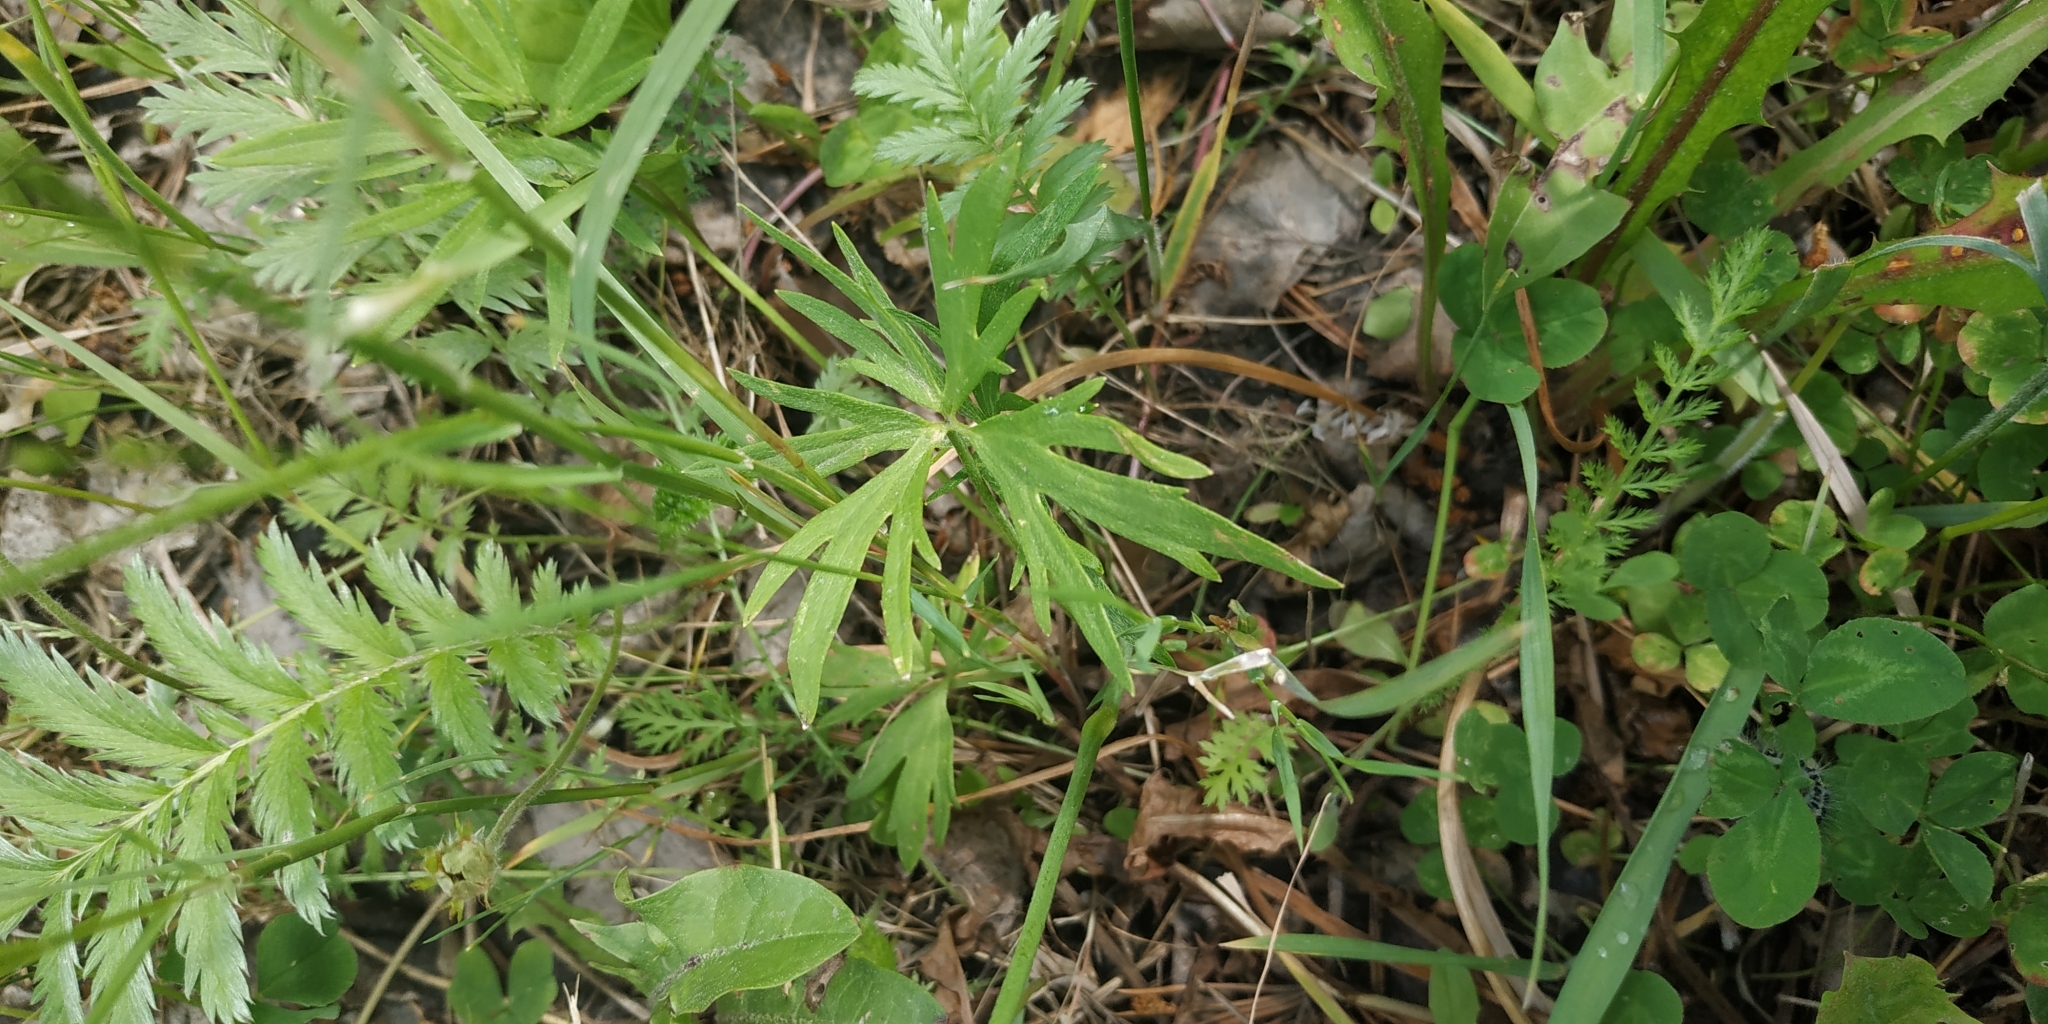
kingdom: Plantae
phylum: Tracheophyta
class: Magnoliopsida
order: Ranunculales
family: Ranunculaceae
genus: Ranunculus
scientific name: Ranunculus acris
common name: Meadow buttercup
